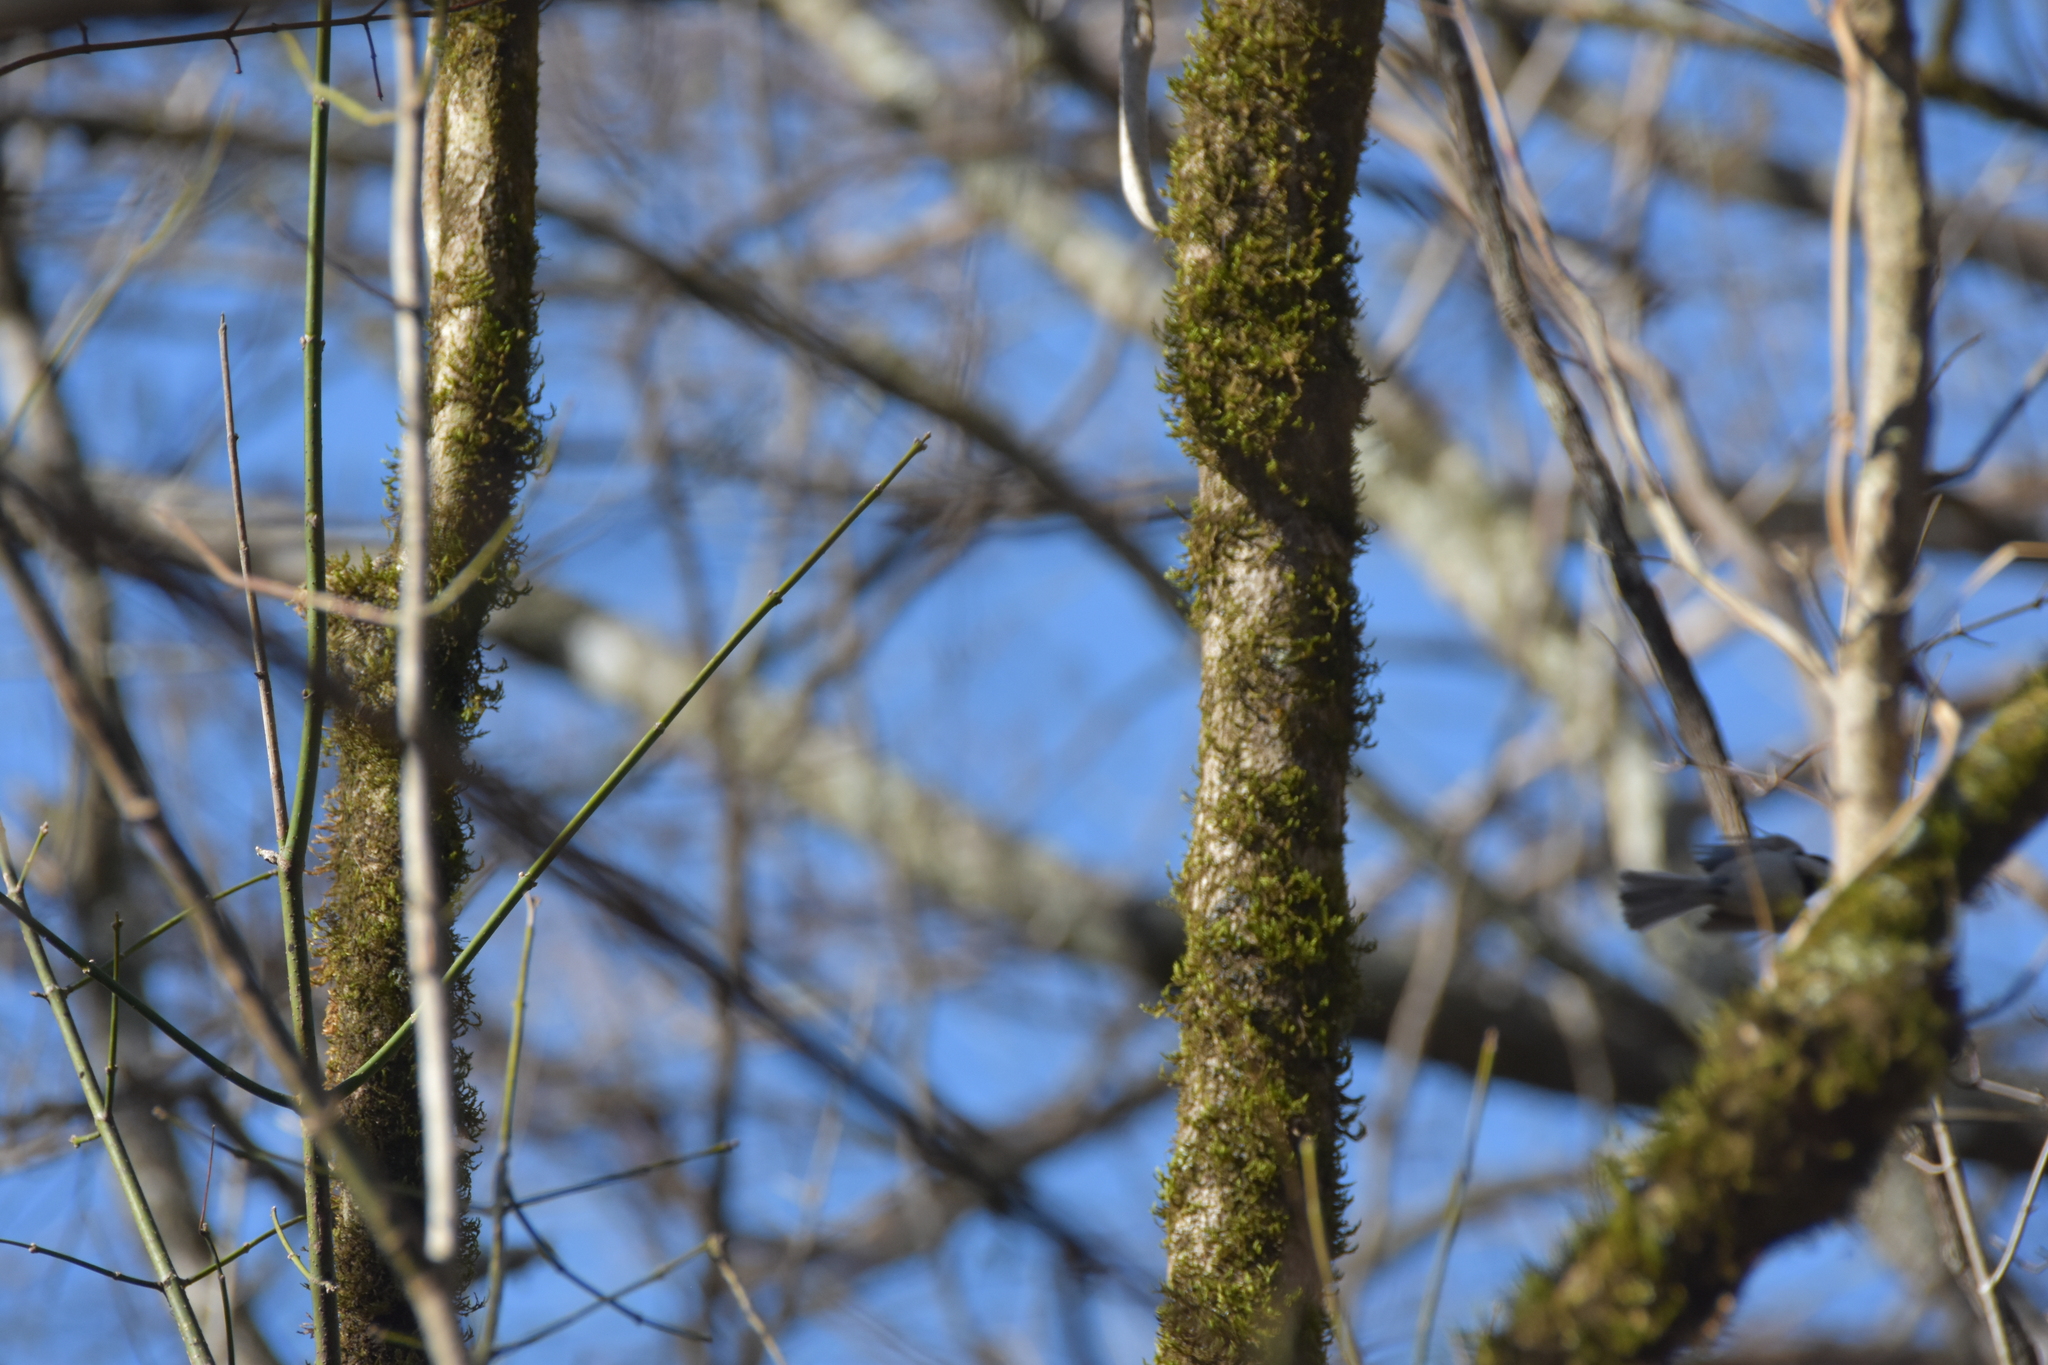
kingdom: Animalia
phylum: Chordata
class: Aves
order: Passeriformes
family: Paridae
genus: Poecile
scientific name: Poecile carolinensis
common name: Carolina chickadee
